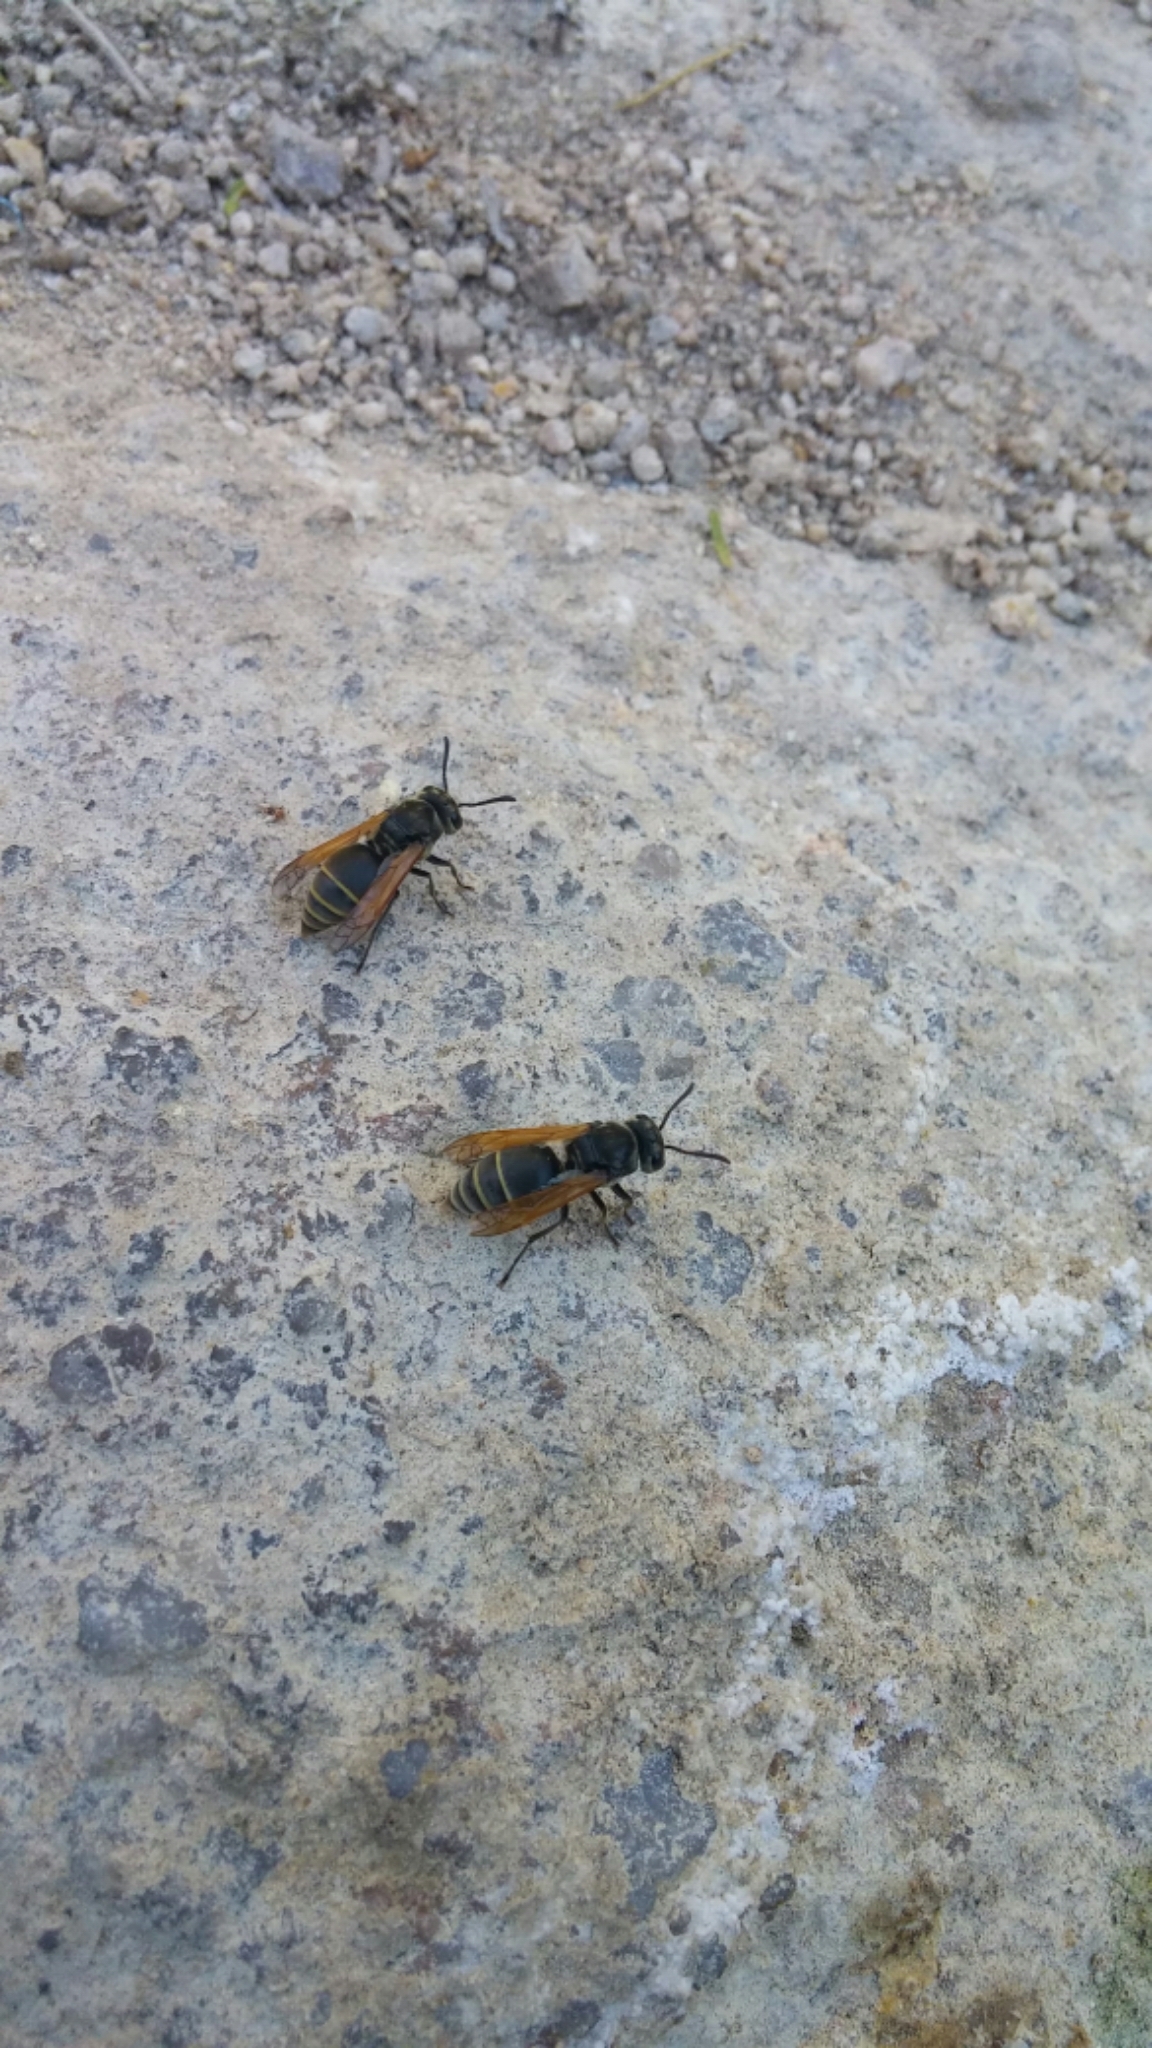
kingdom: Animalia
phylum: Arthropoda
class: Insecta
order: Hymenoptera
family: Vespidae
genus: Brachygastra
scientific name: Brachygastra mellifica
